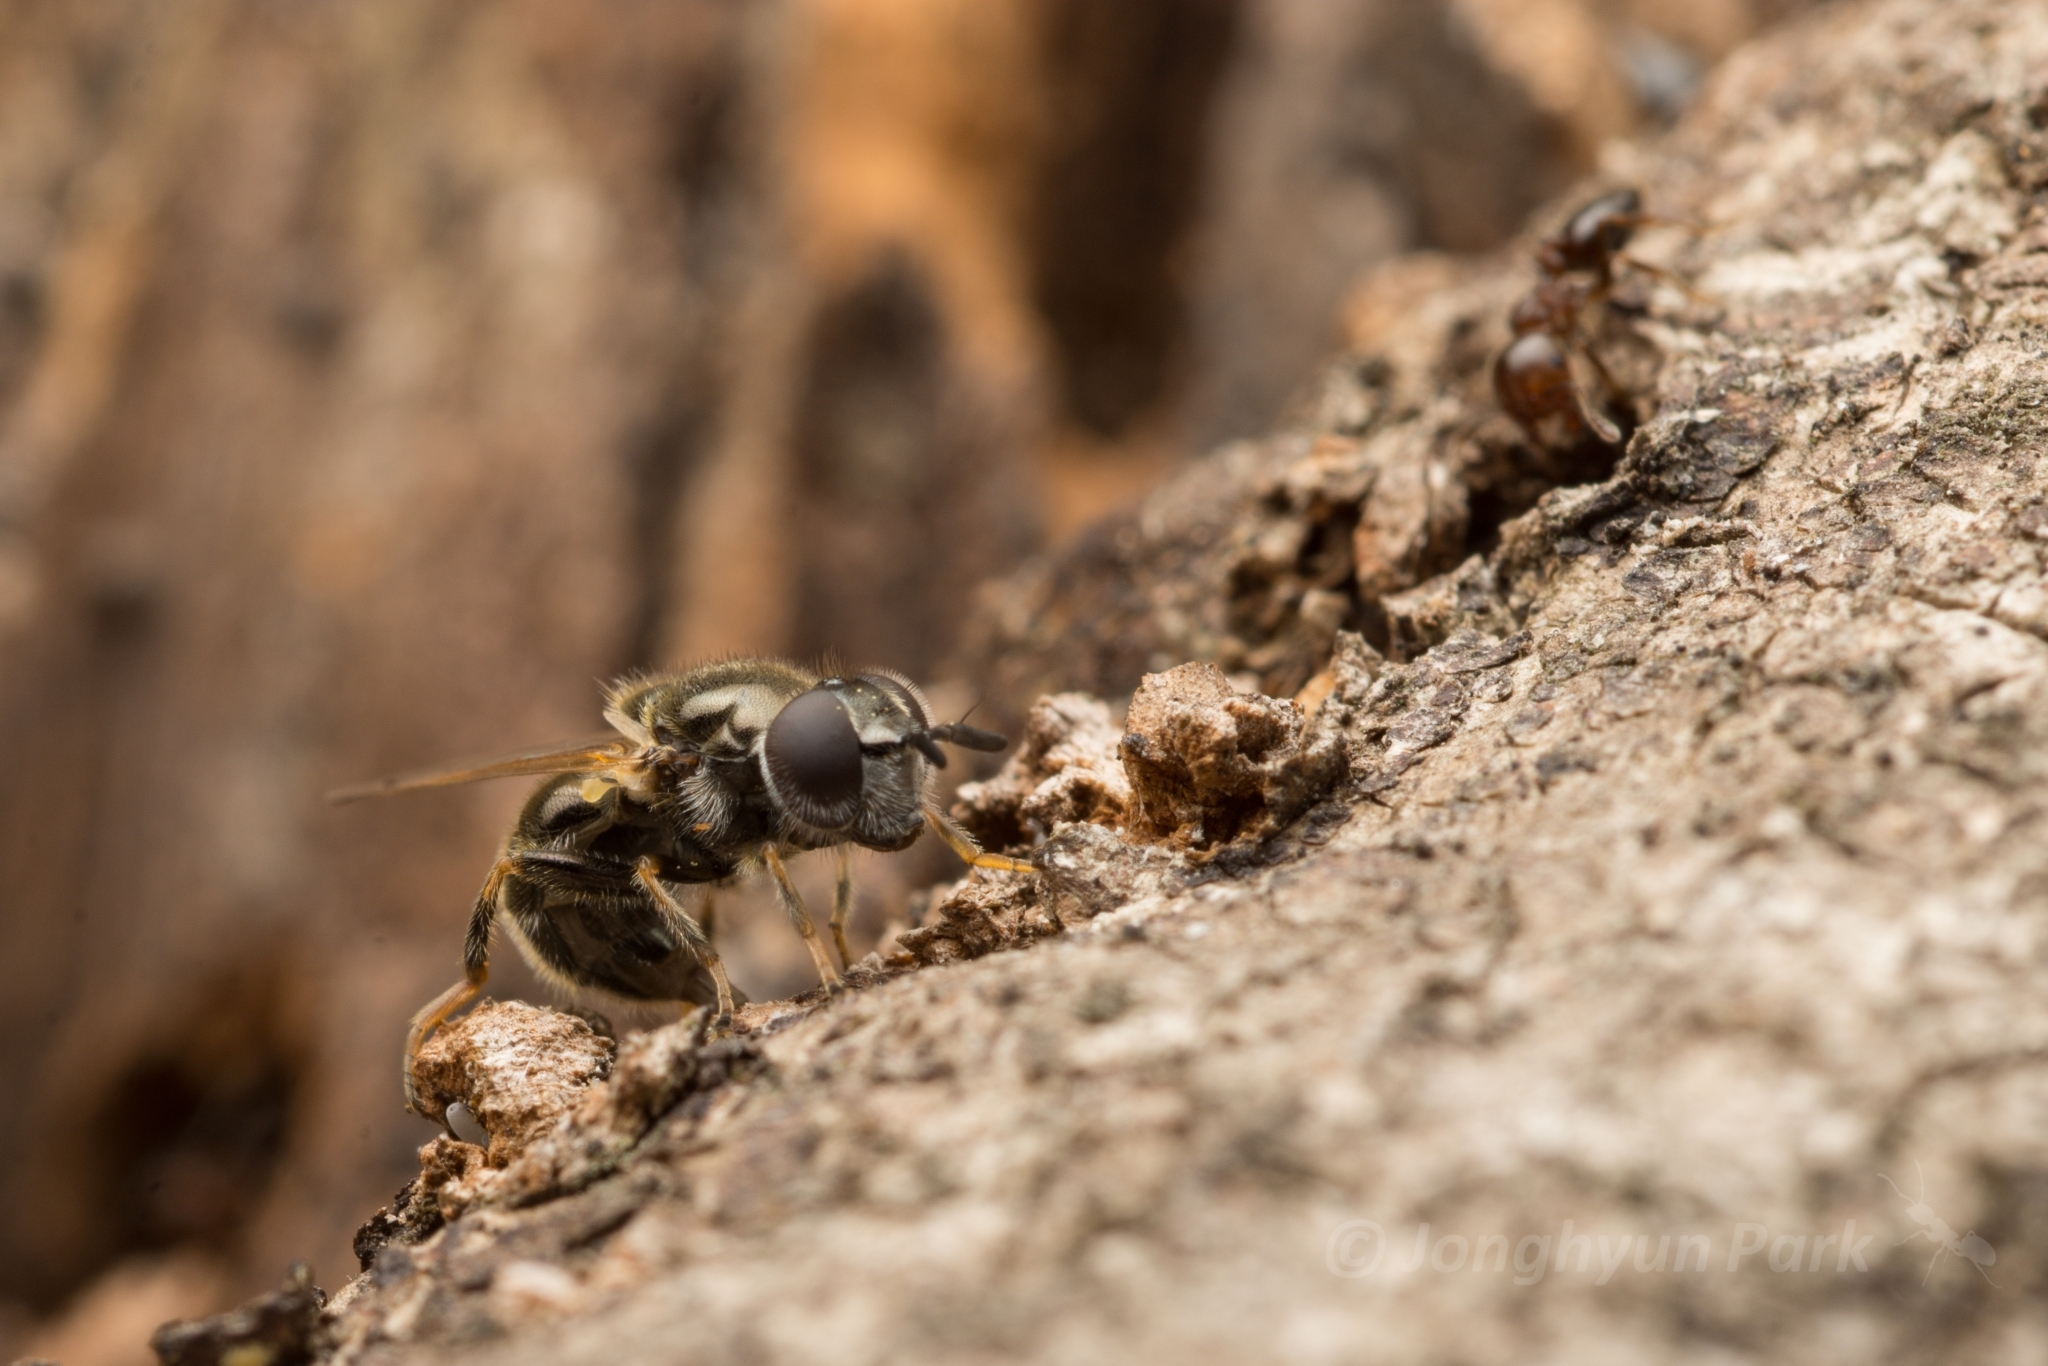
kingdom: Animalia
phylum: Arthropoda
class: Insecta
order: Hymenoptera
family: Formicidae
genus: Crematogaster
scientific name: Crematogaster matsumurai
